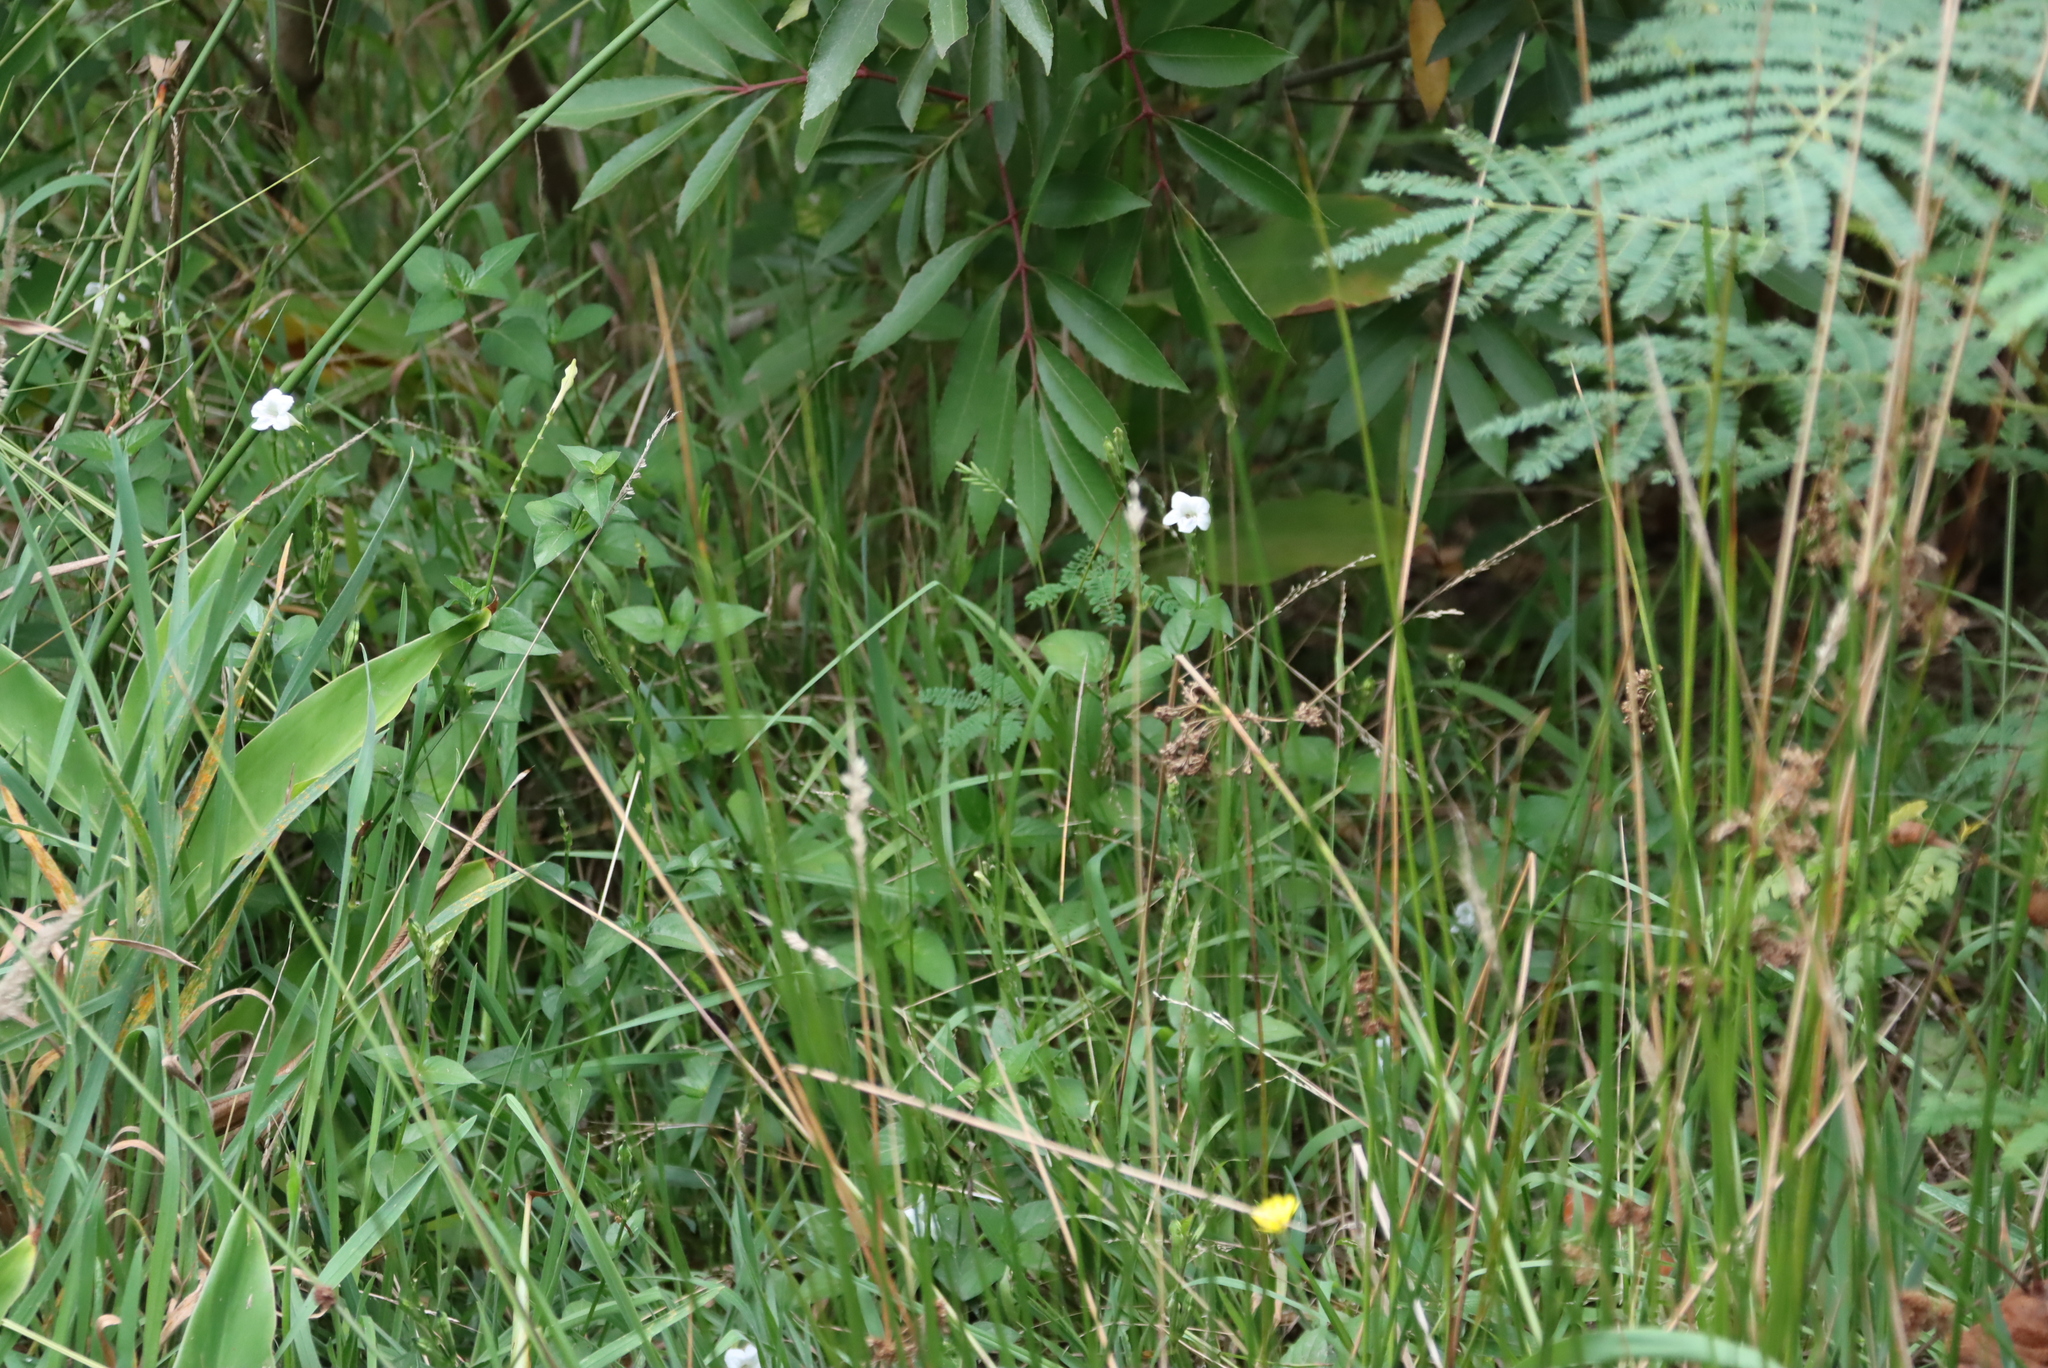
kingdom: Plantae
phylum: Tracheophyta
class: Magnoliopsida
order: Lamiales
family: Acanthaceae
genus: Asystasia
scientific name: Asystasia intrusa
